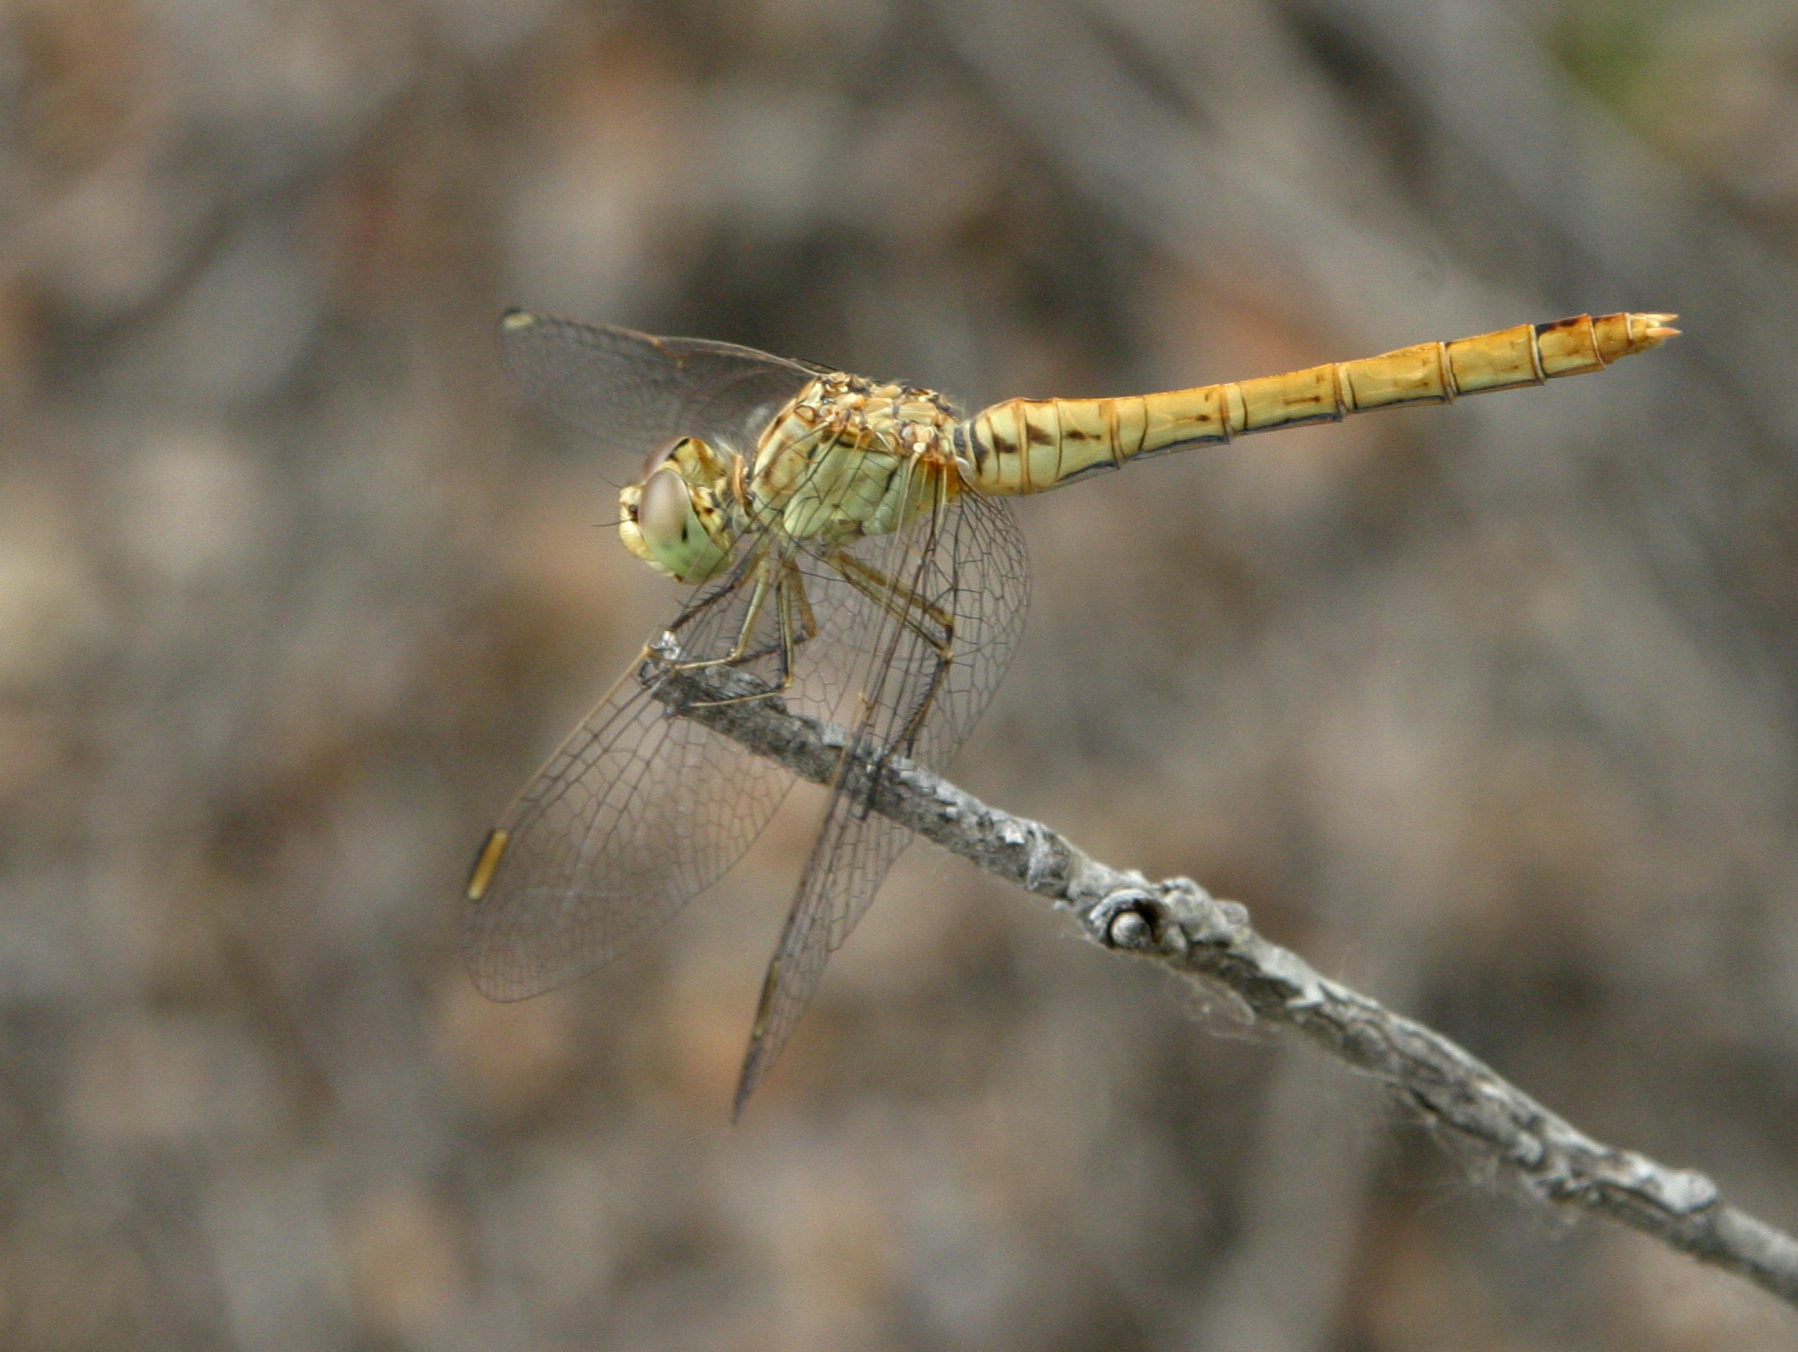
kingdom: Animalia
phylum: Arthropoda
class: Insecta
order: Odonata
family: Libellulidae
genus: Sympetrum
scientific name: Sympetrum meridionale
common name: Southern darter
